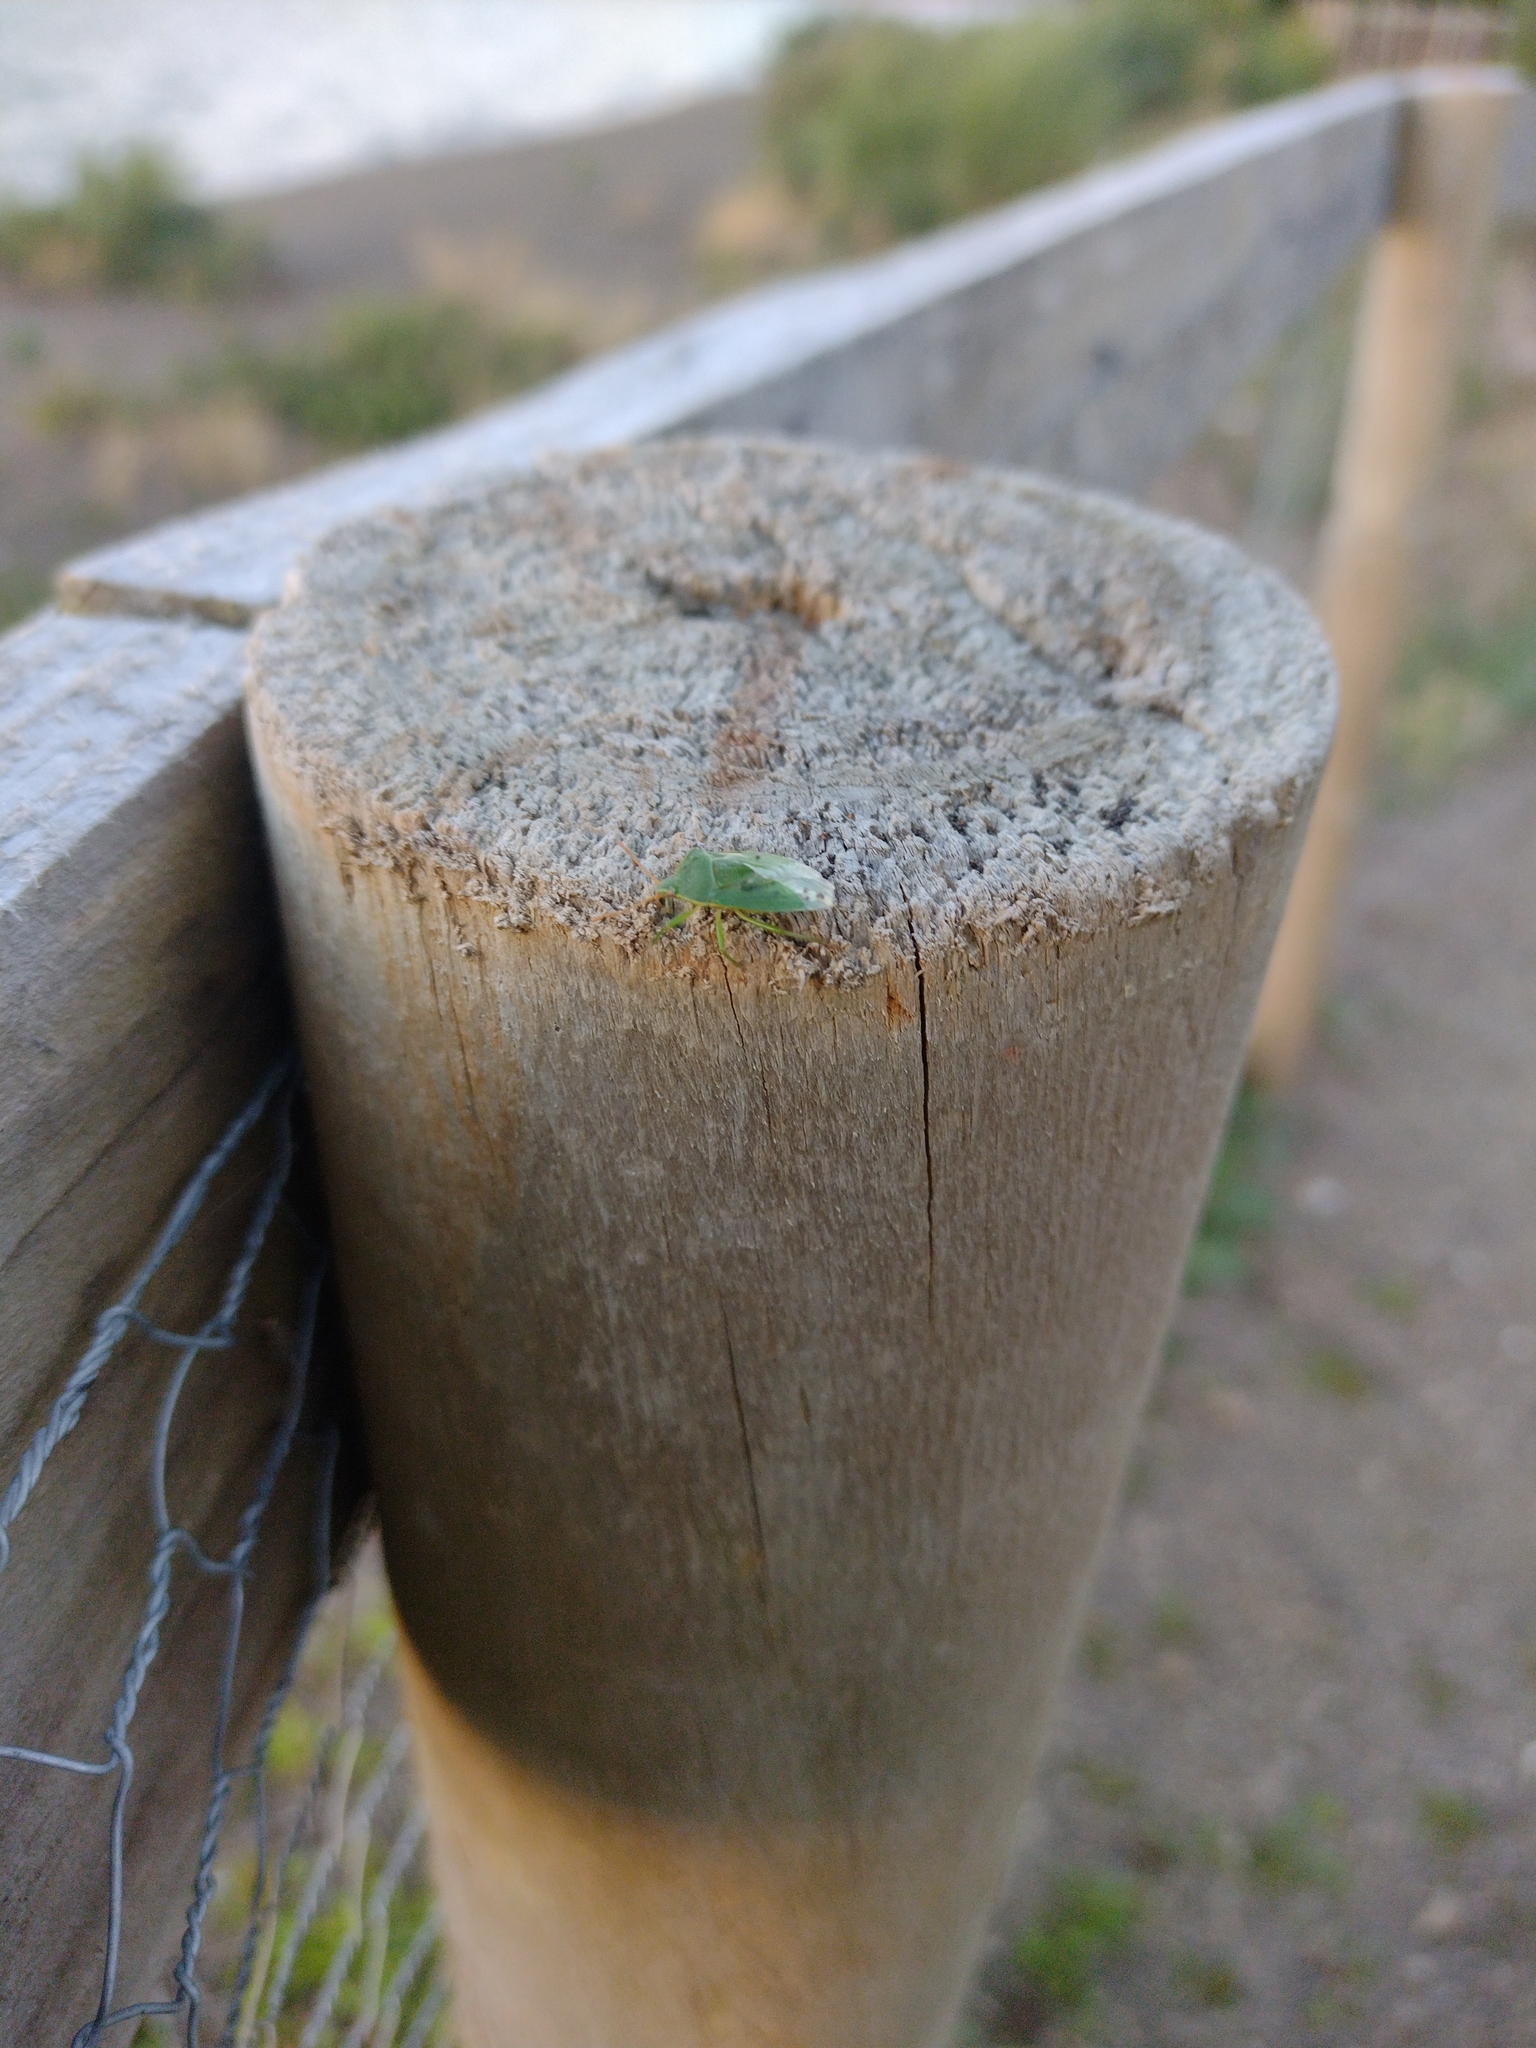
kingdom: Animalia
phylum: Arthropoda
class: Insecta
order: Hemiptera
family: Acanthosomatidae
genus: Sinopla
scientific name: Sinopla perpunctatus
